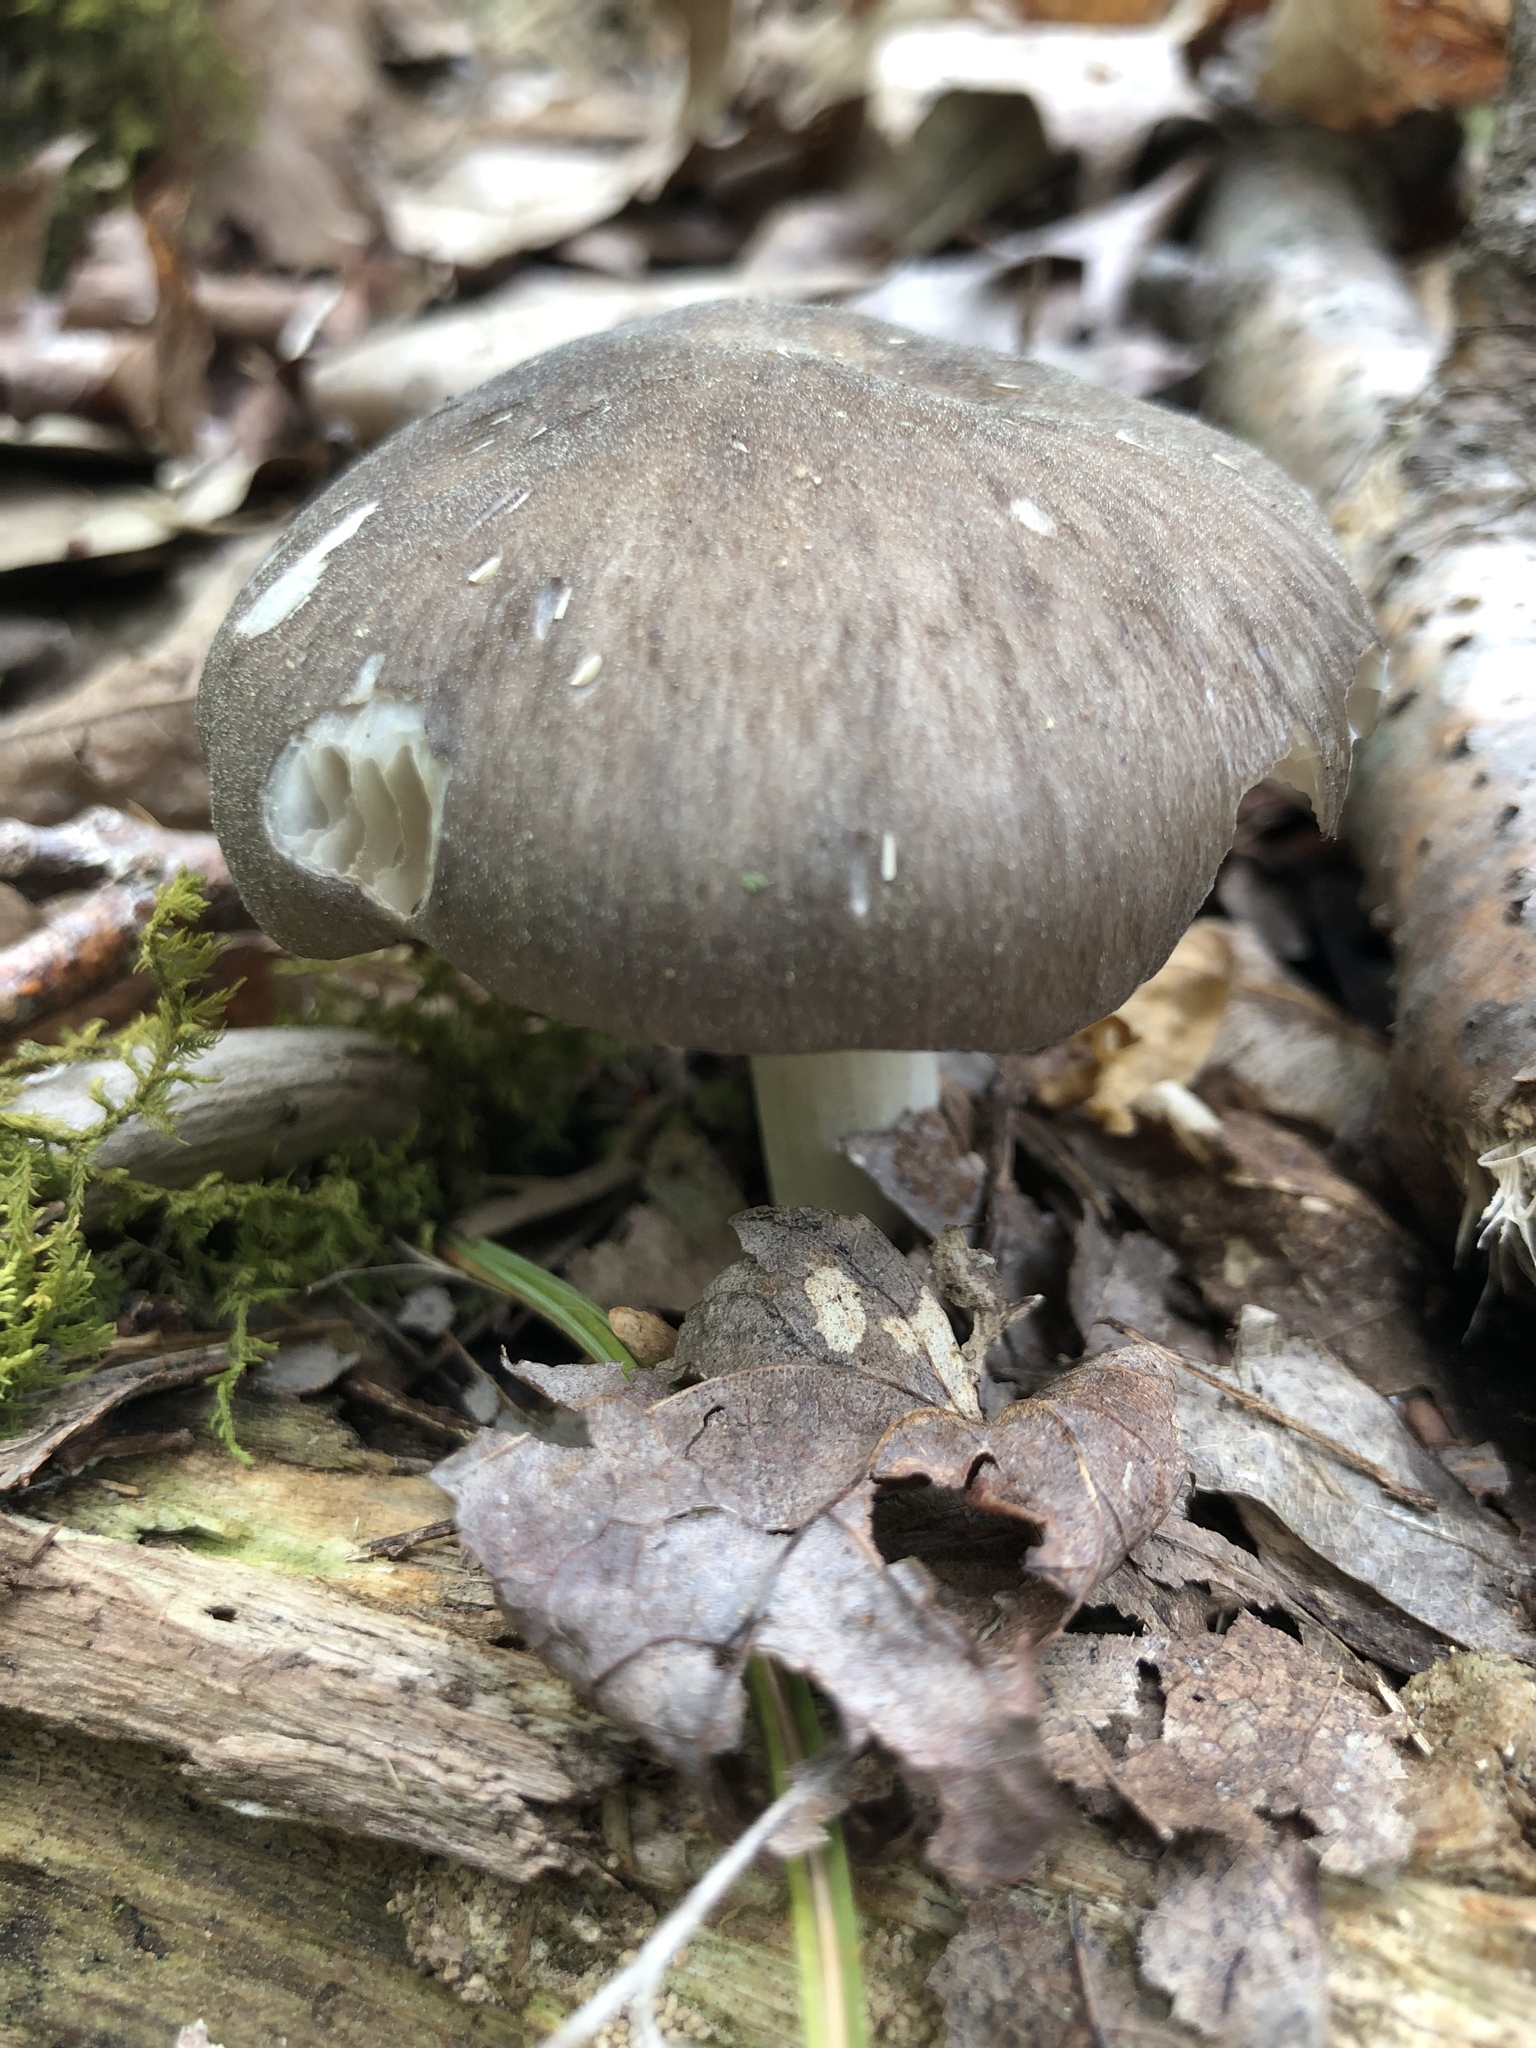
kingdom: Fungi
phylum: Basidiomycota
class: Agaricomycetes
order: Agaricales
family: Tricholomataceae
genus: Megacollybia
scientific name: Megacollybia rodmanii
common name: Eastern american platterful mushroom
